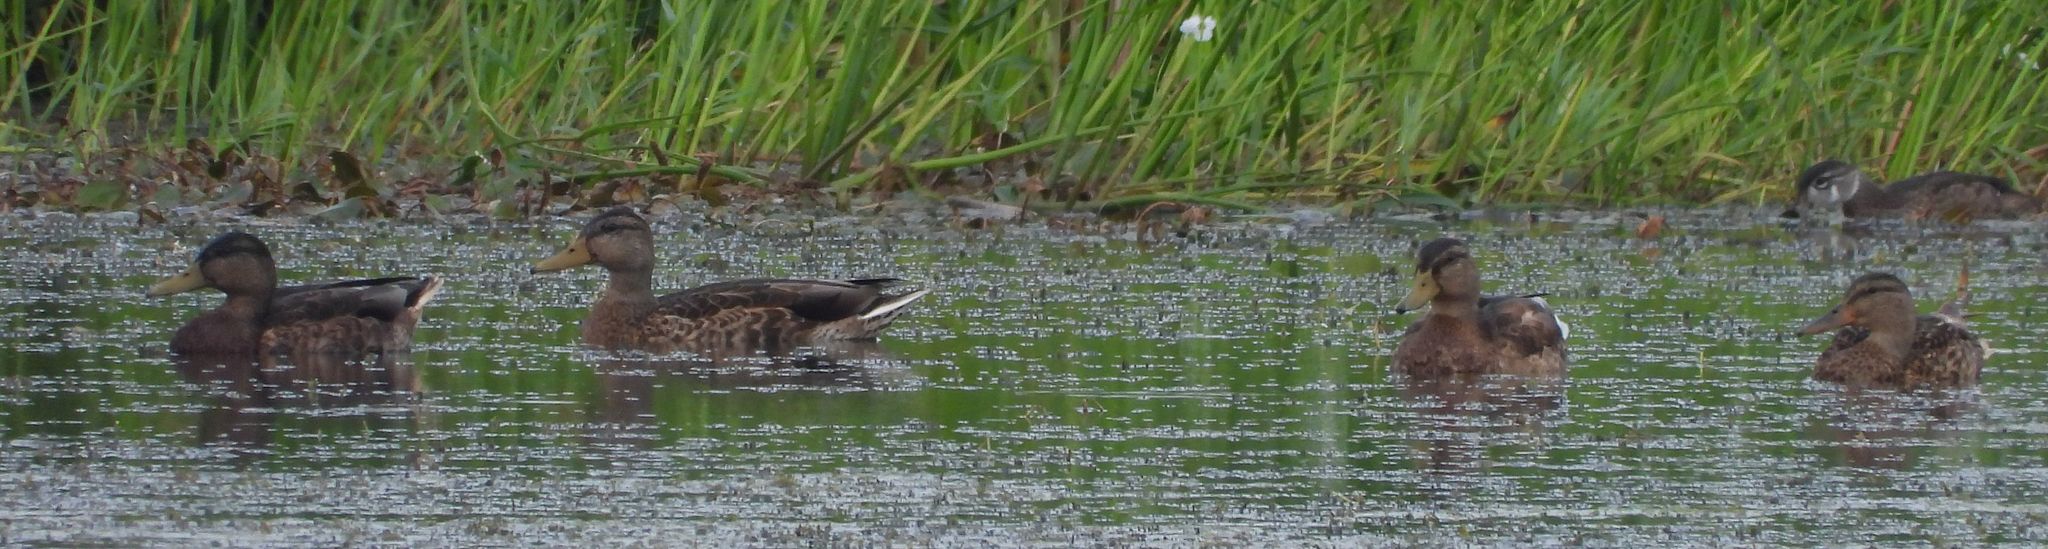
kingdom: Animalia
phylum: Chordata
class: Aves
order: Anseriformes
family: Anatidae
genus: Anas
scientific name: Anas platyrhynchos
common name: Mallard
